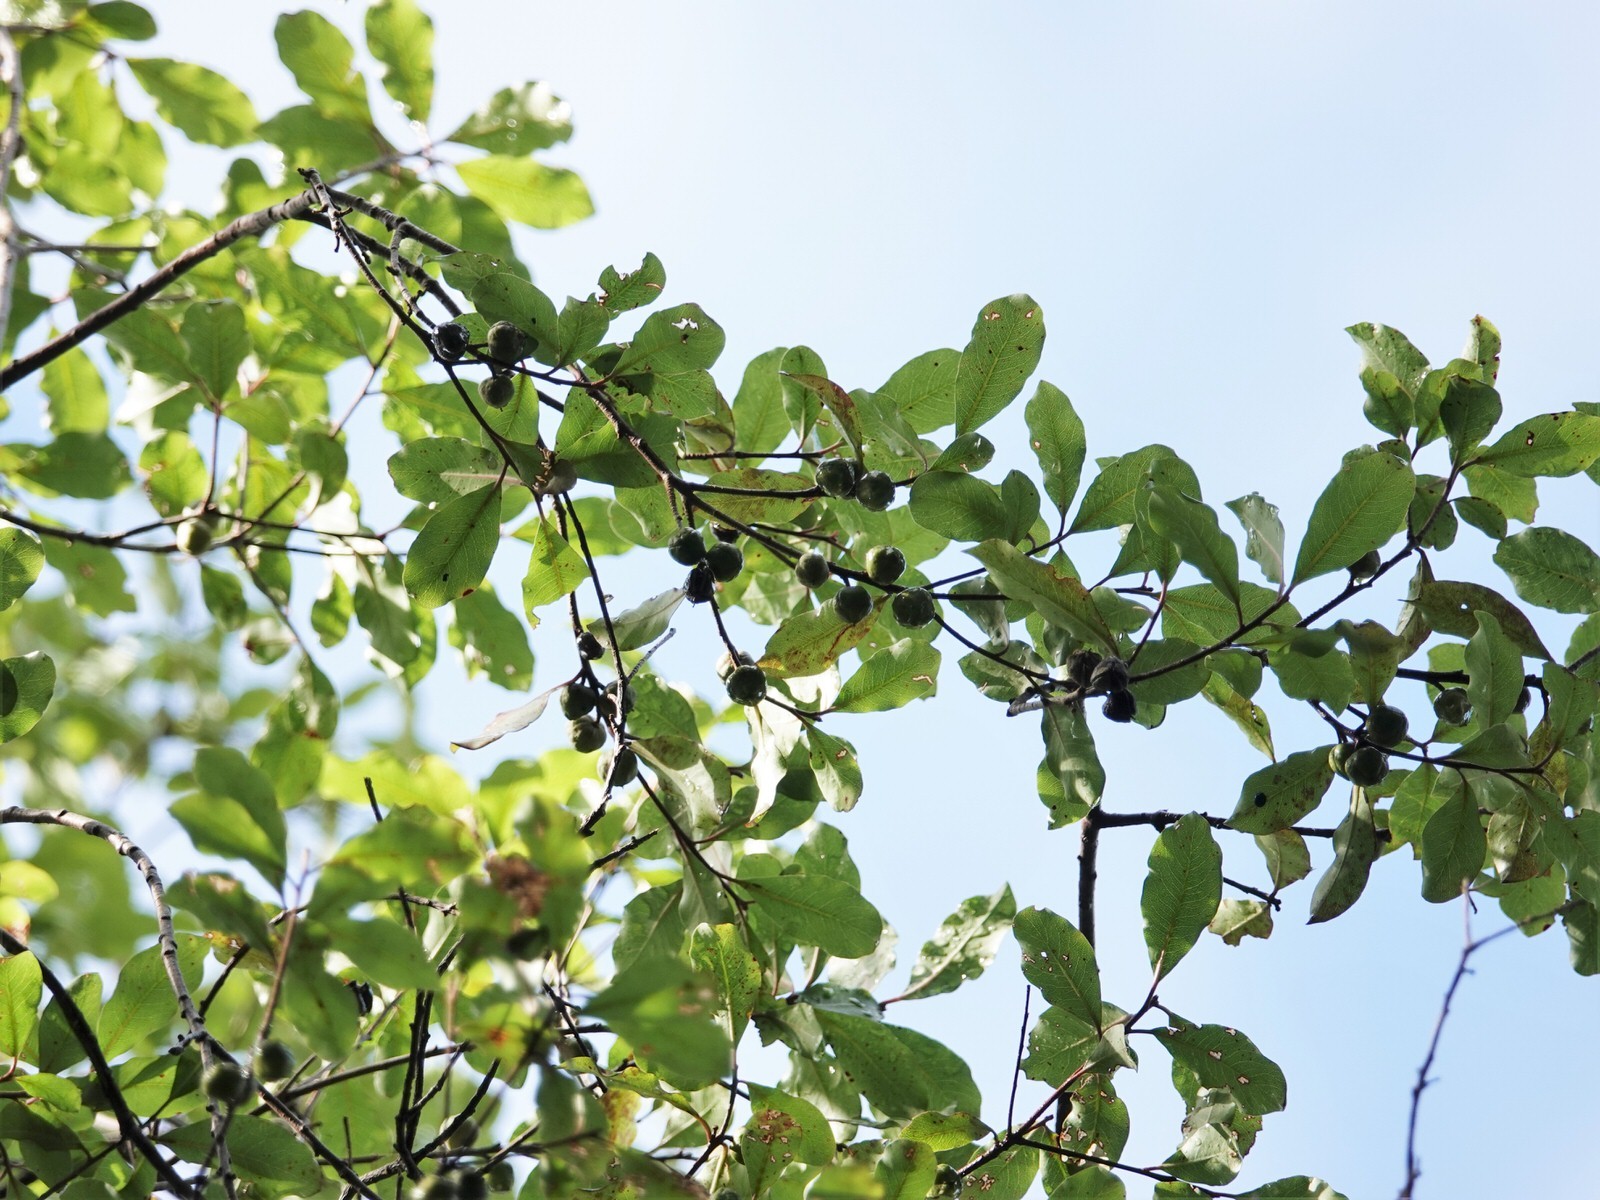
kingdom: Plantae
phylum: Tracheophyta
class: Magnoliopsida
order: Apiales
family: Pittosporaceae
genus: Pittosporum
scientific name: Pittosporum tenuifolium
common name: Kohuhu
